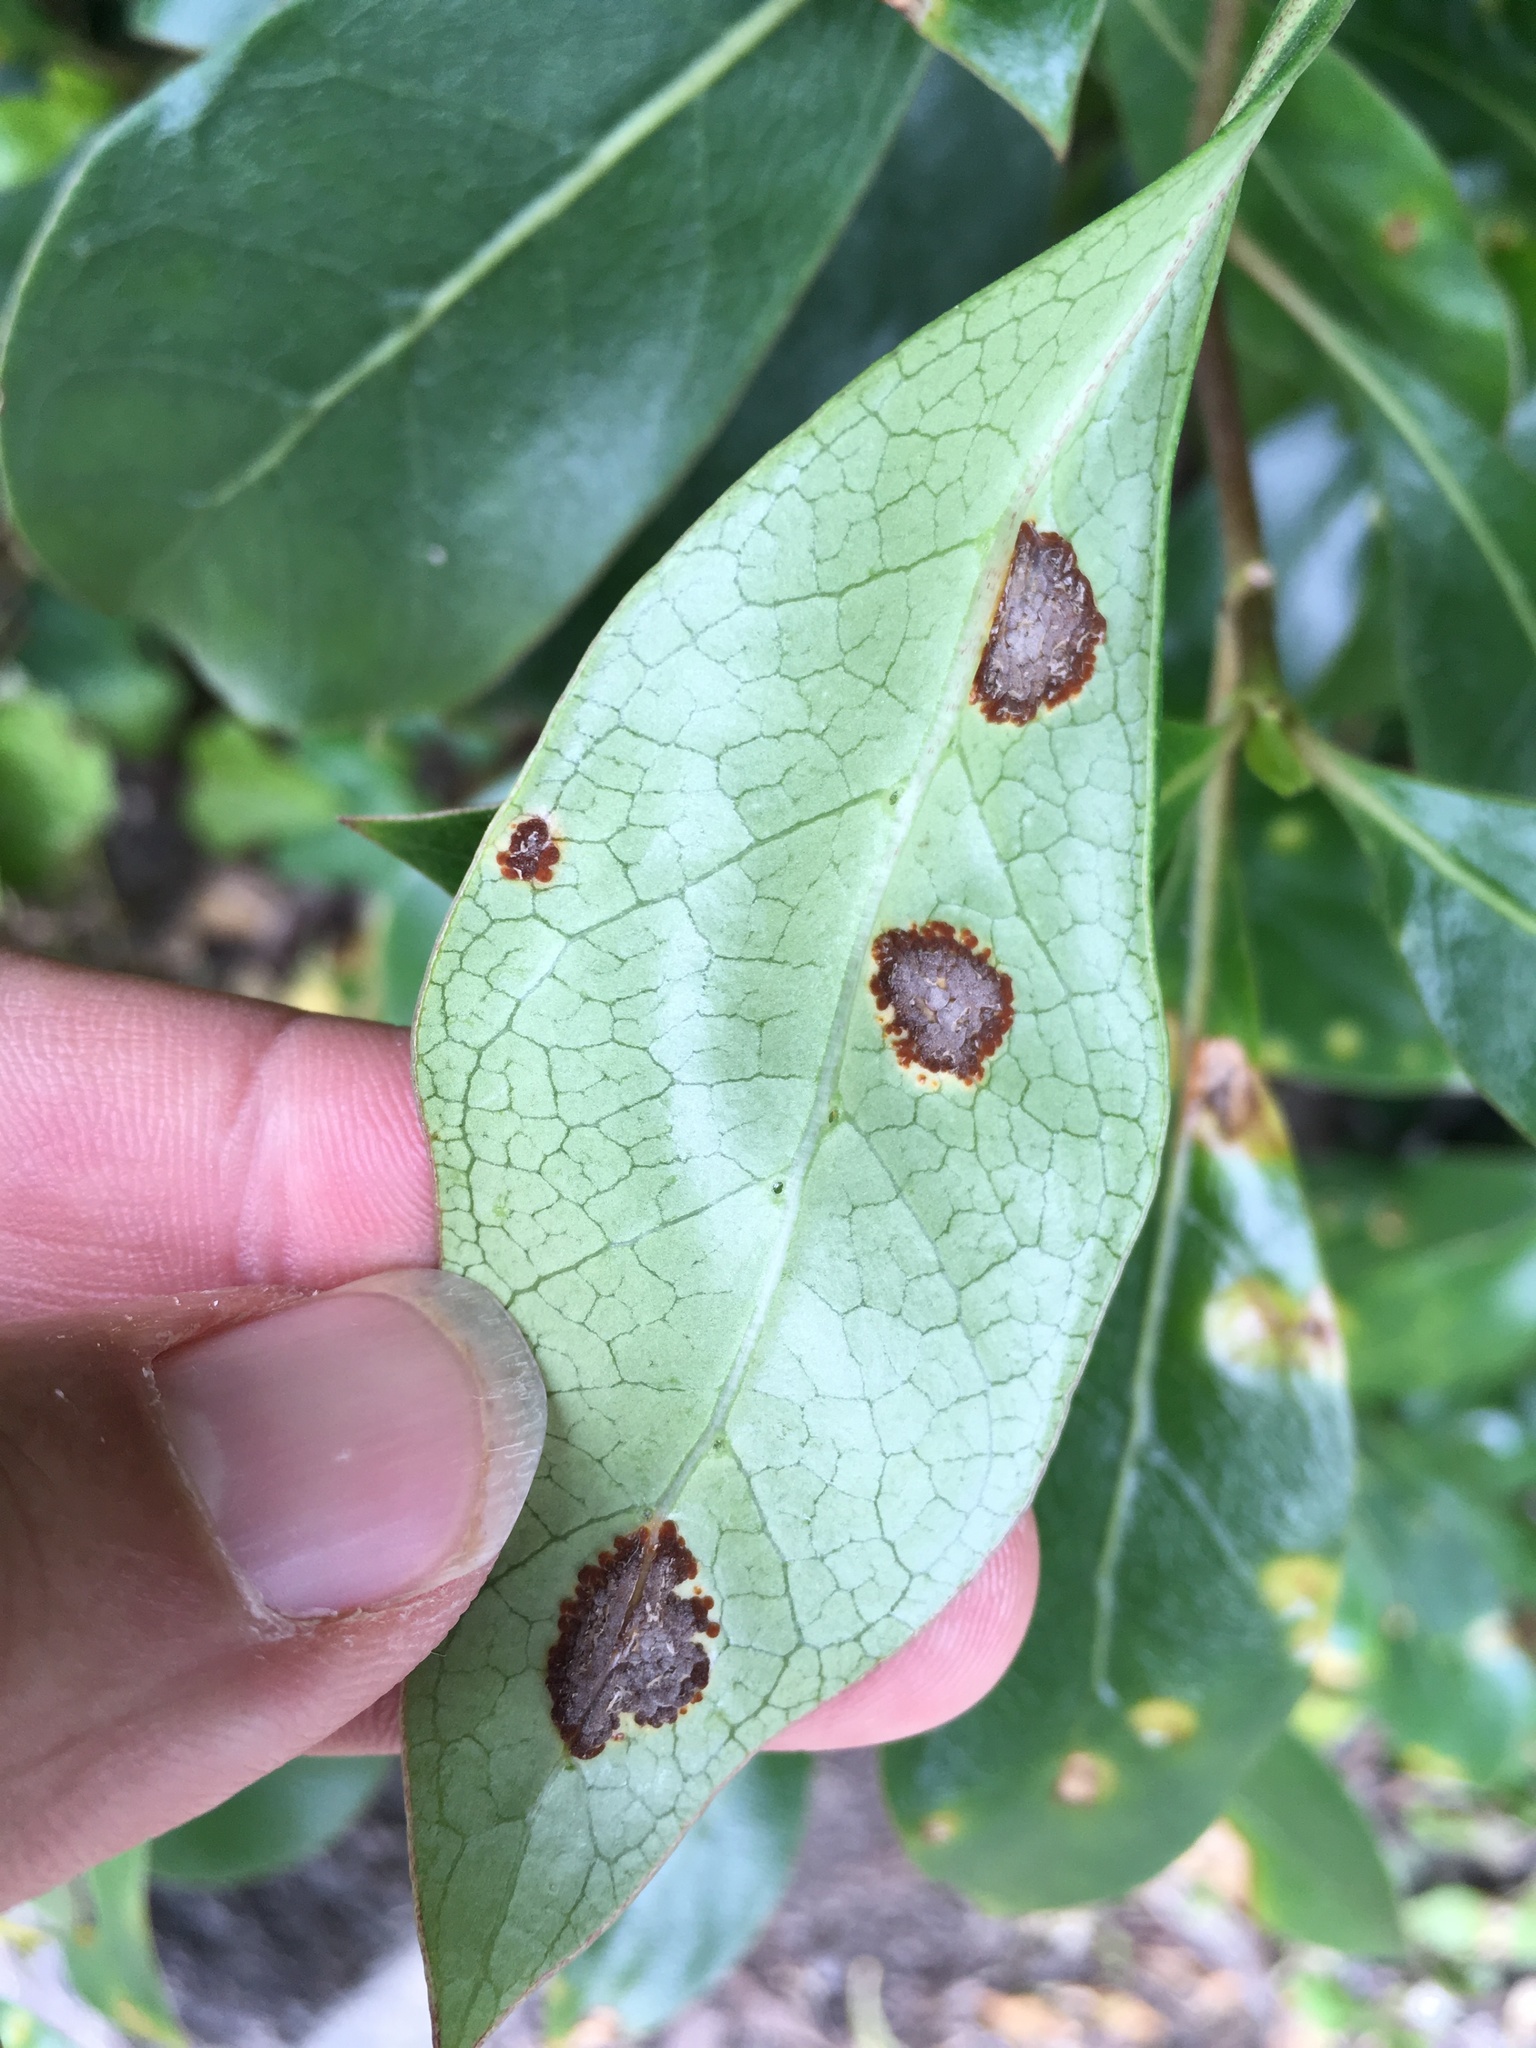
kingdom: Fungi
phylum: Basidiomycota
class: Pucciniomycetes
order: Pucciniales
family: Pucciniaceae
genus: Puccinia
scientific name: Puccinia coprosmae
